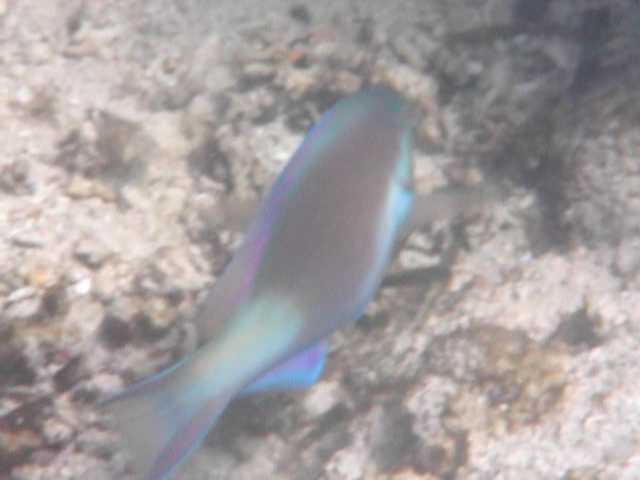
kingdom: Animalia
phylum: Chordata
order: Perciformes
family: Scaridae
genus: Scarus
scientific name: Scarus hypselopterus
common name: Java parrotfish
